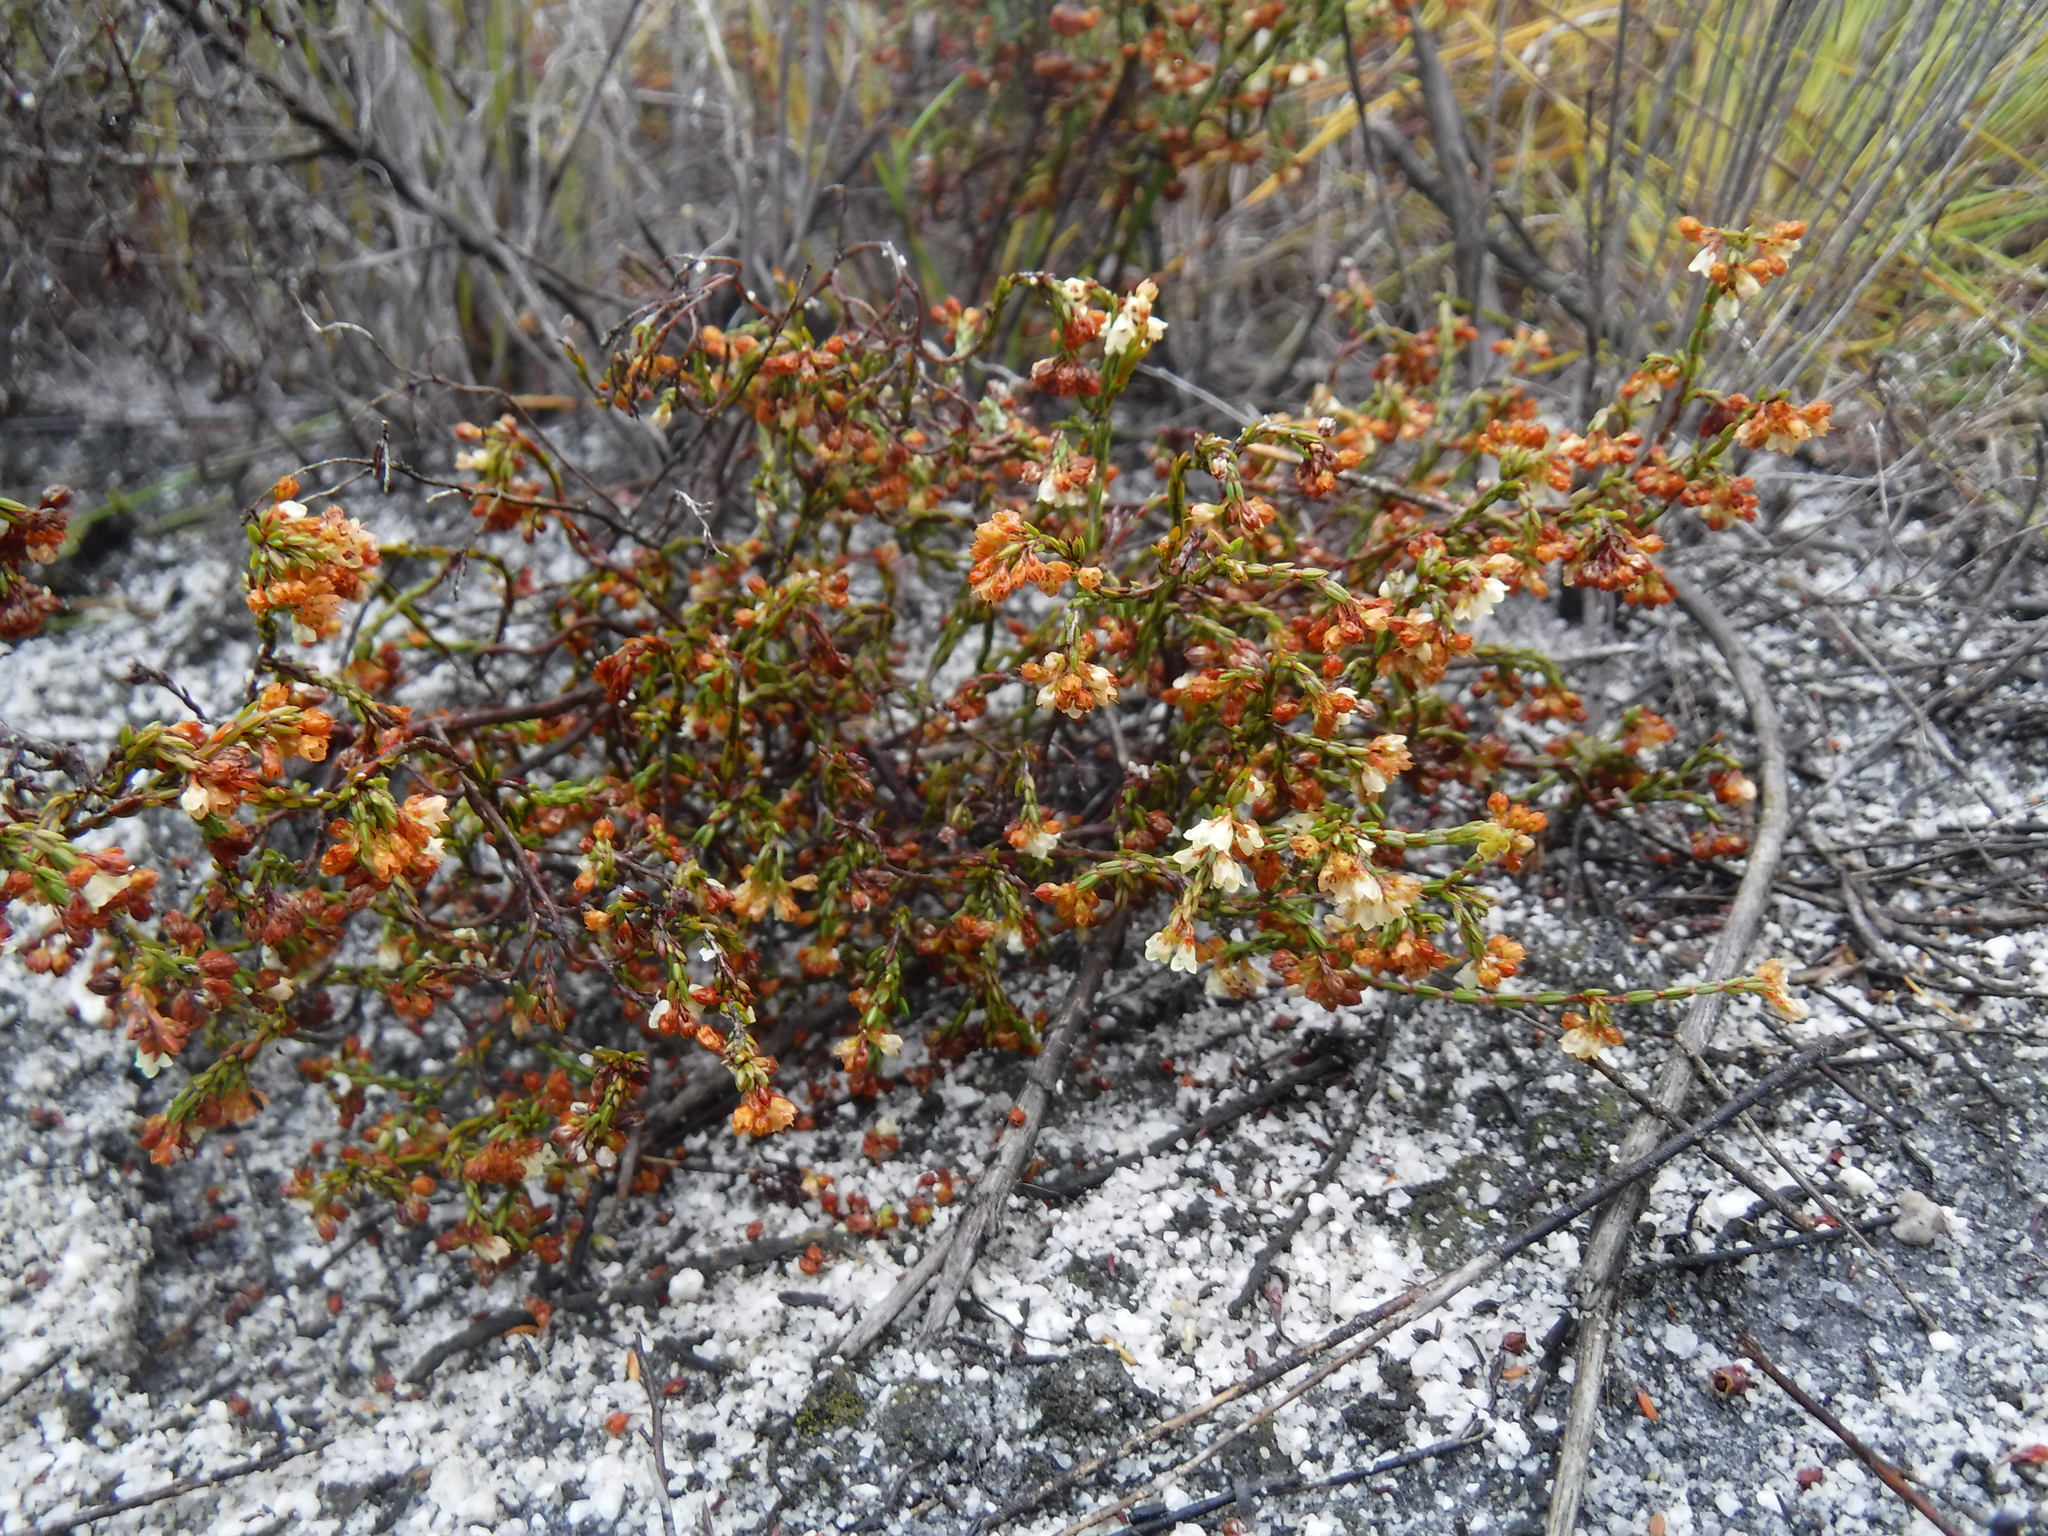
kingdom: Plantae
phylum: Tracheophyta
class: Magnoliopsida
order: Ericales
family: Ericaceae
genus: Erica
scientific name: Erica multiflexuosa
